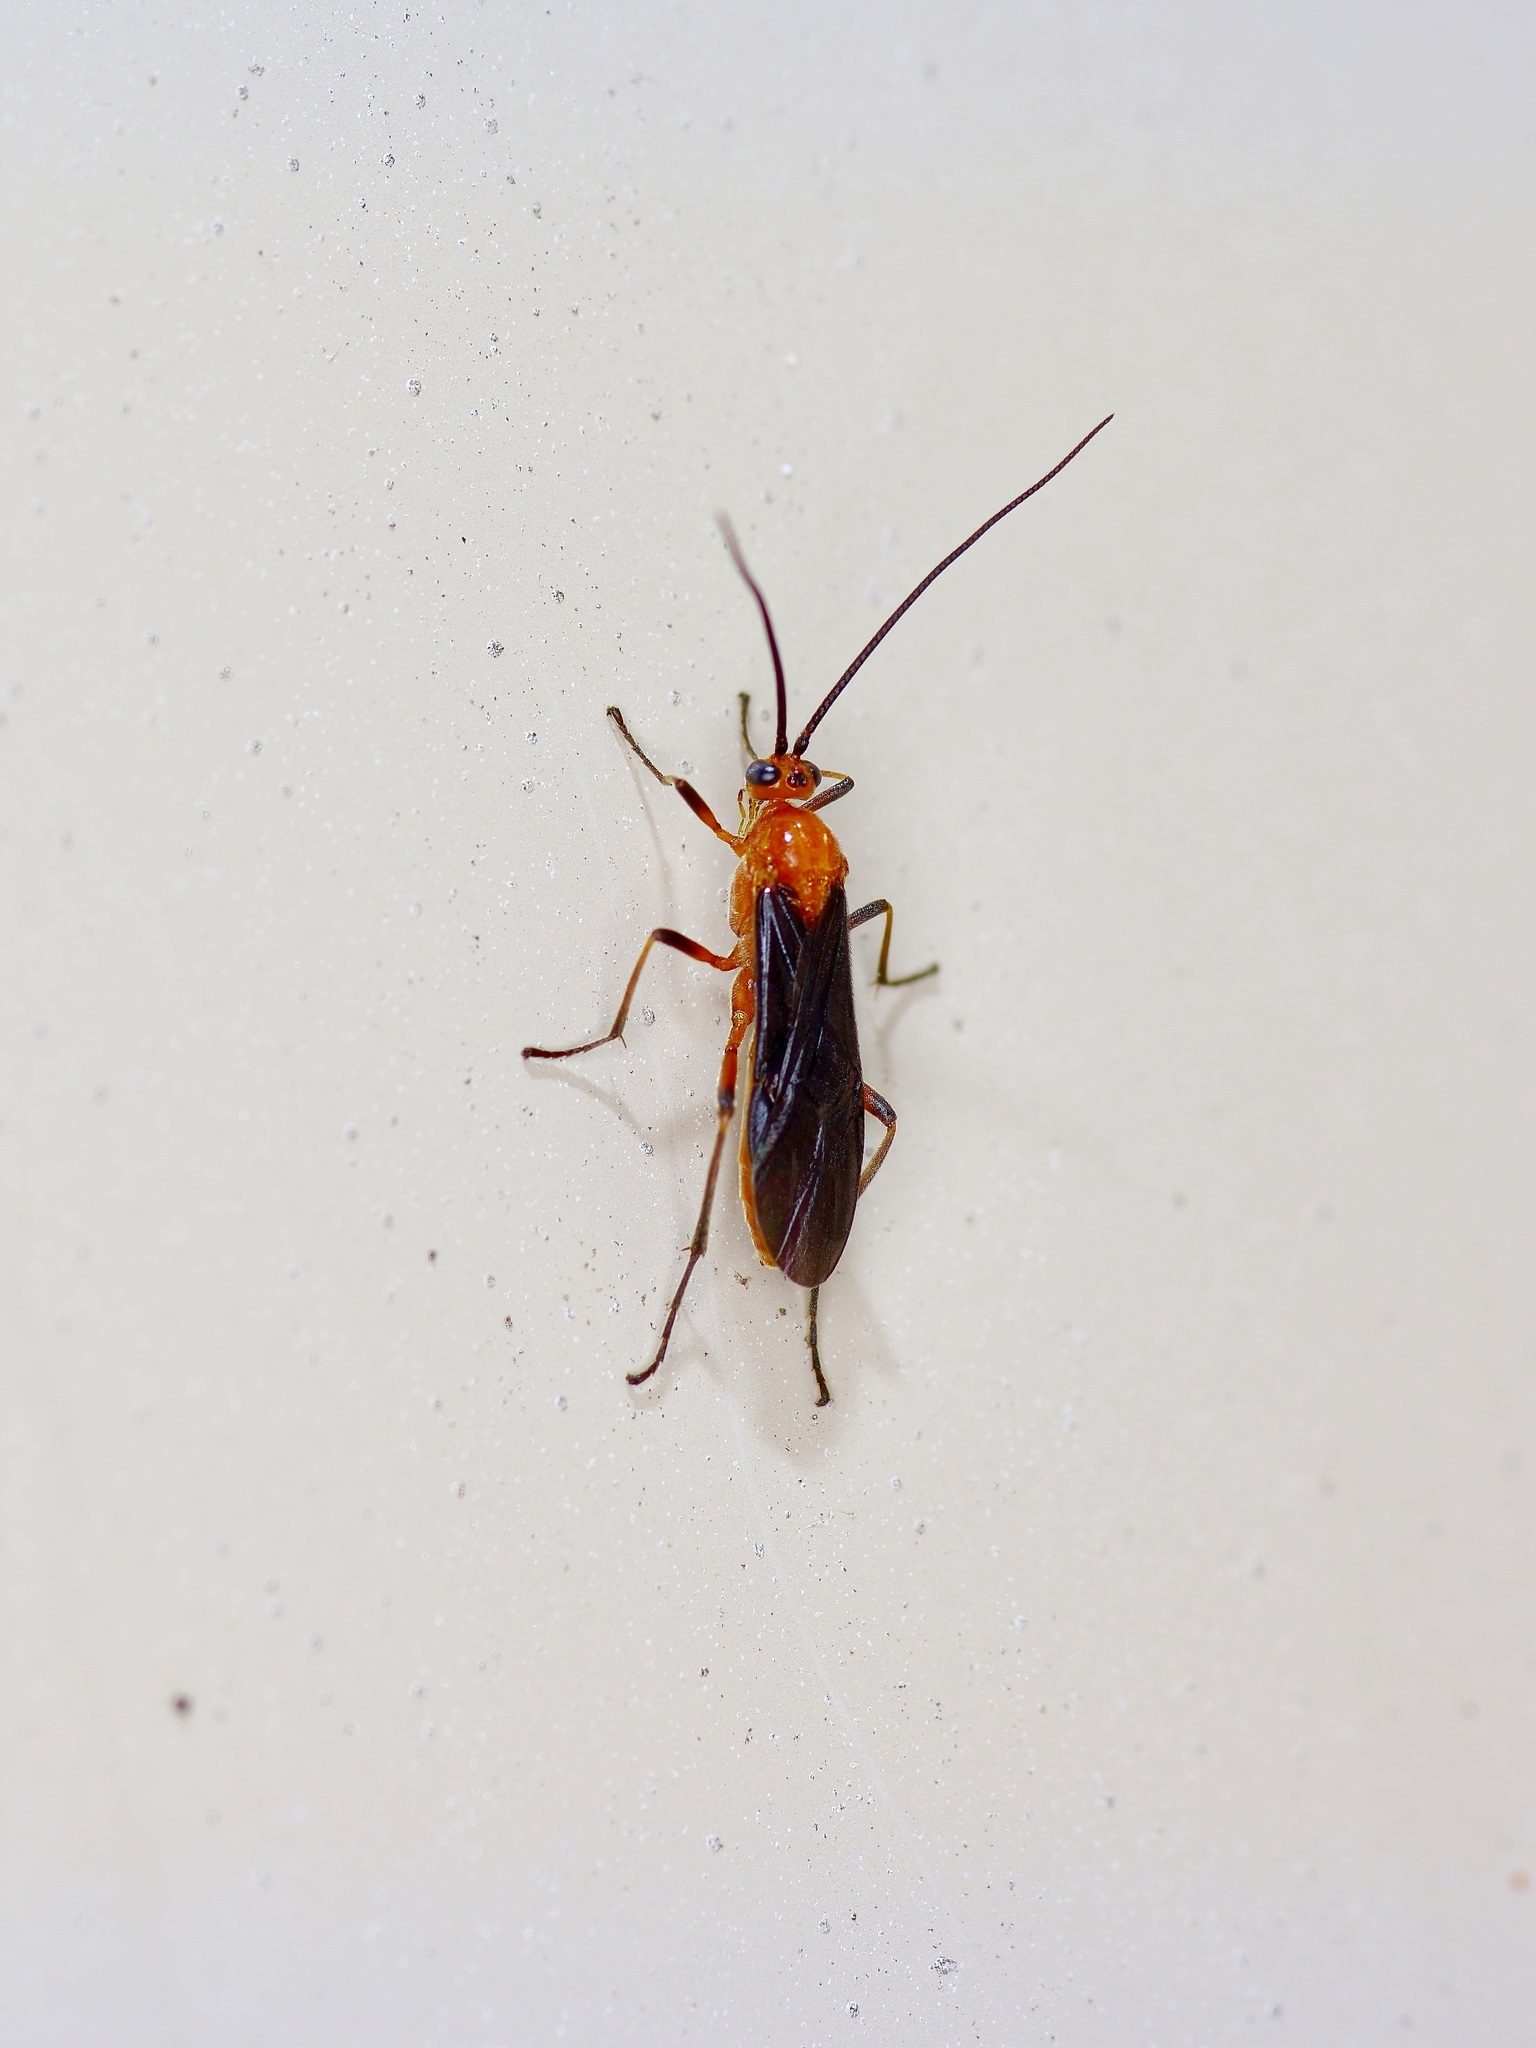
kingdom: Animalia
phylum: Arthropoda
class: Insecta
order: Hymenoptera
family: Braconidae
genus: Aleiodes
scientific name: Aleiodes politiceps
